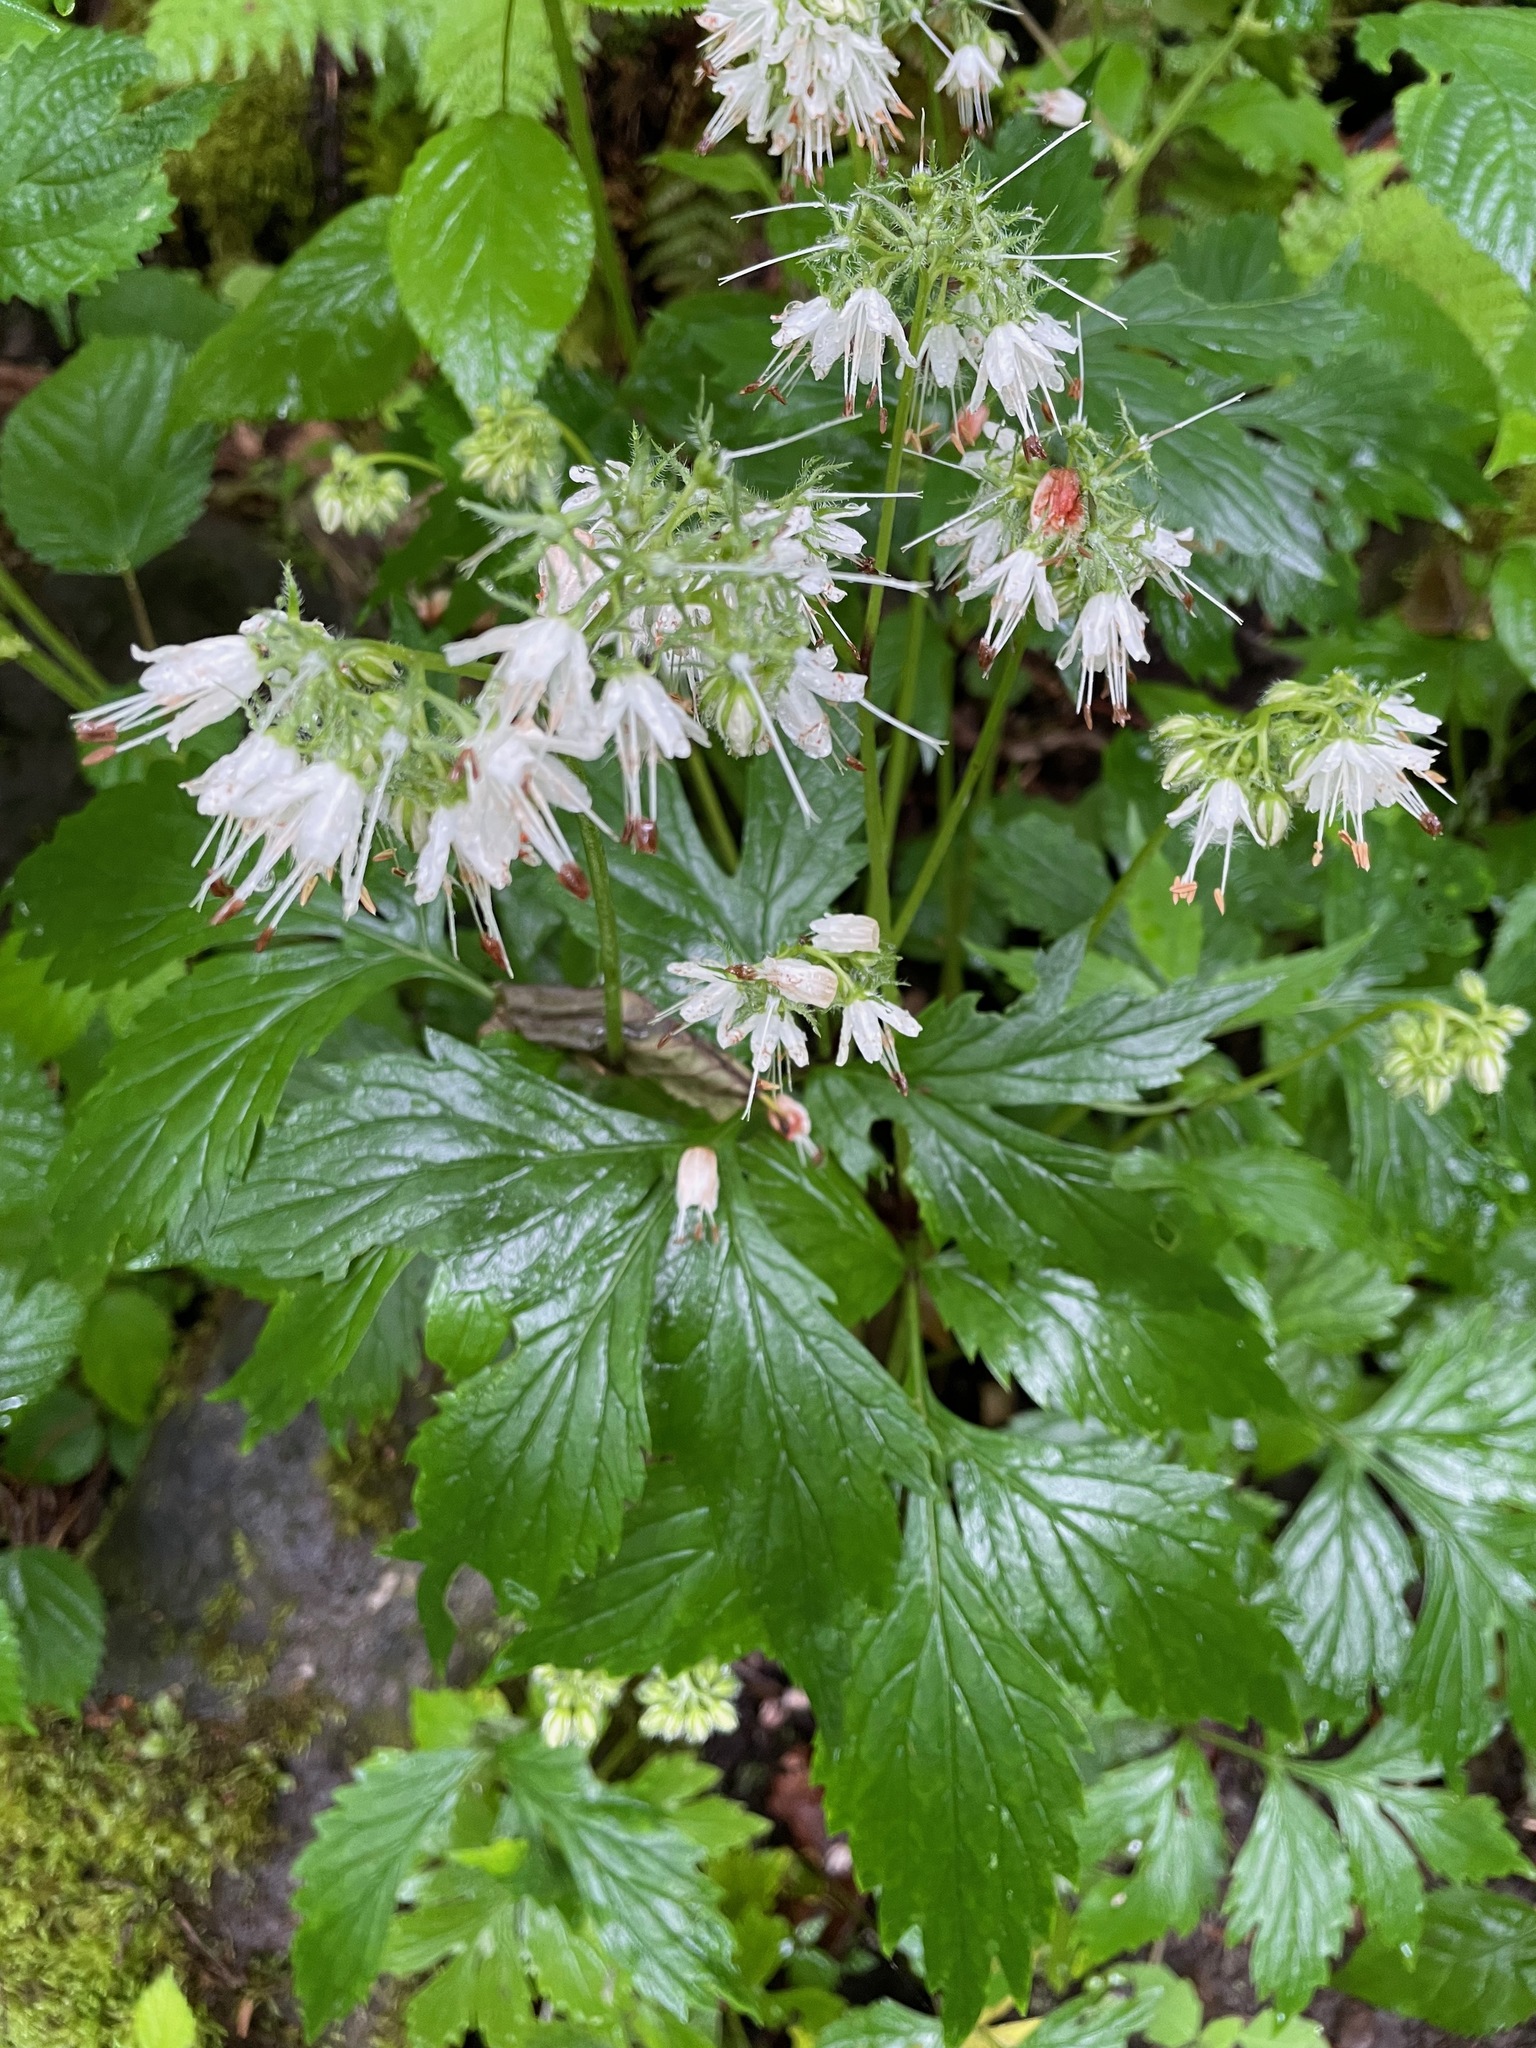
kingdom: Plantae
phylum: Tracheophyta
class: Magnoliopsida
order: Boraginales
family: Hydrophyllaceae
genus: Hydrophyllum
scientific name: Hydrophyllum virginianum
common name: Virginia waterleaf
